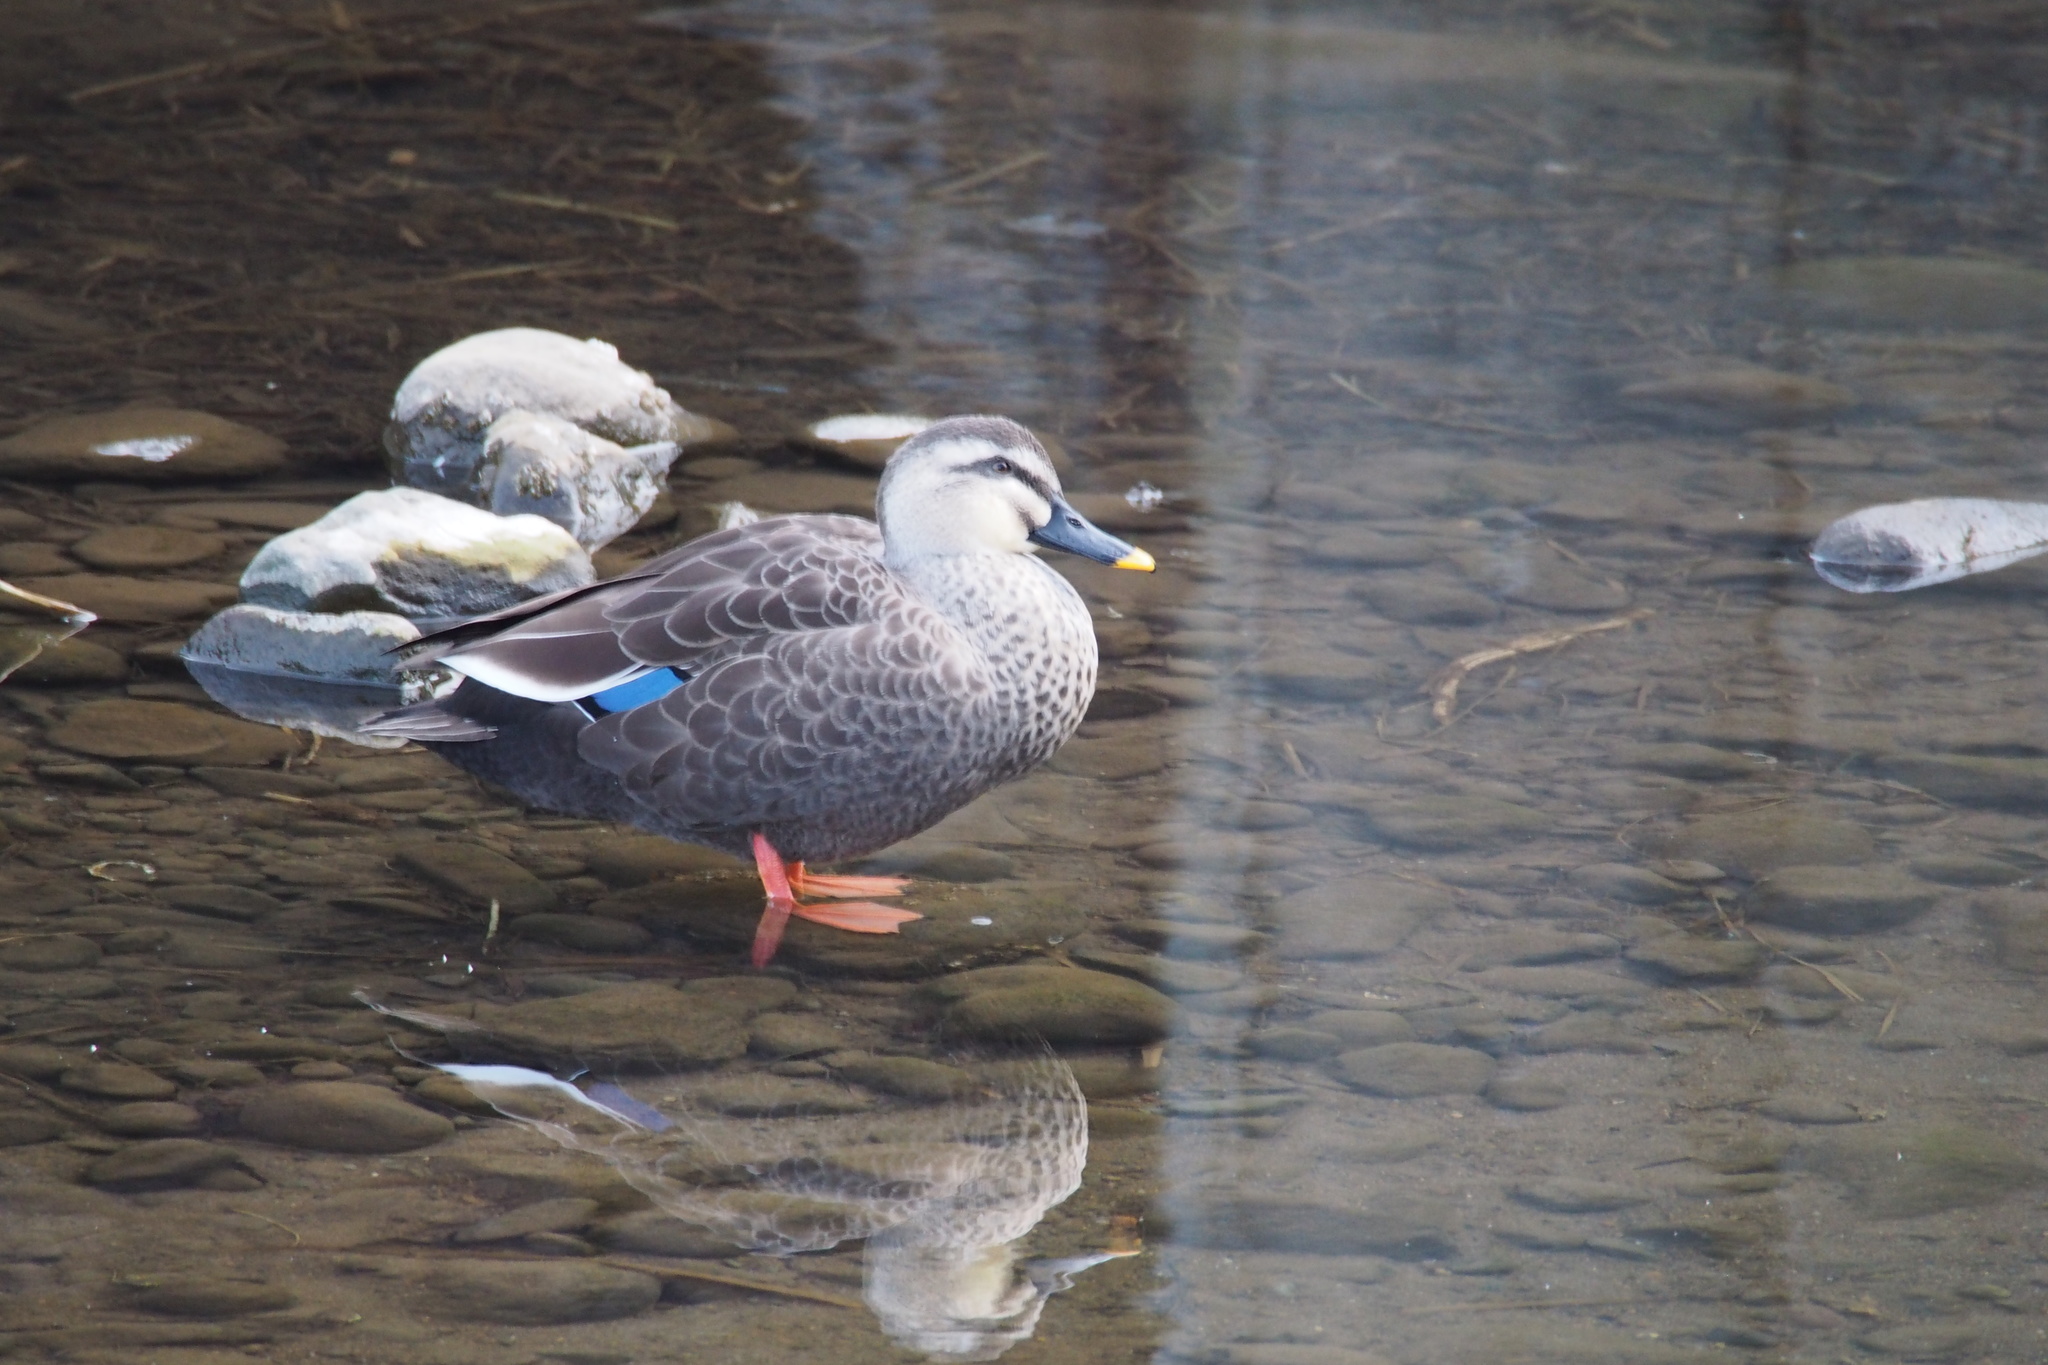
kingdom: Animalia
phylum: Chordata
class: Aves
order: Anseriformes
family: Anatidae
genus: Anas
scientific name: Anas zonorhyncha
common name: Eastern spot-billed duck
